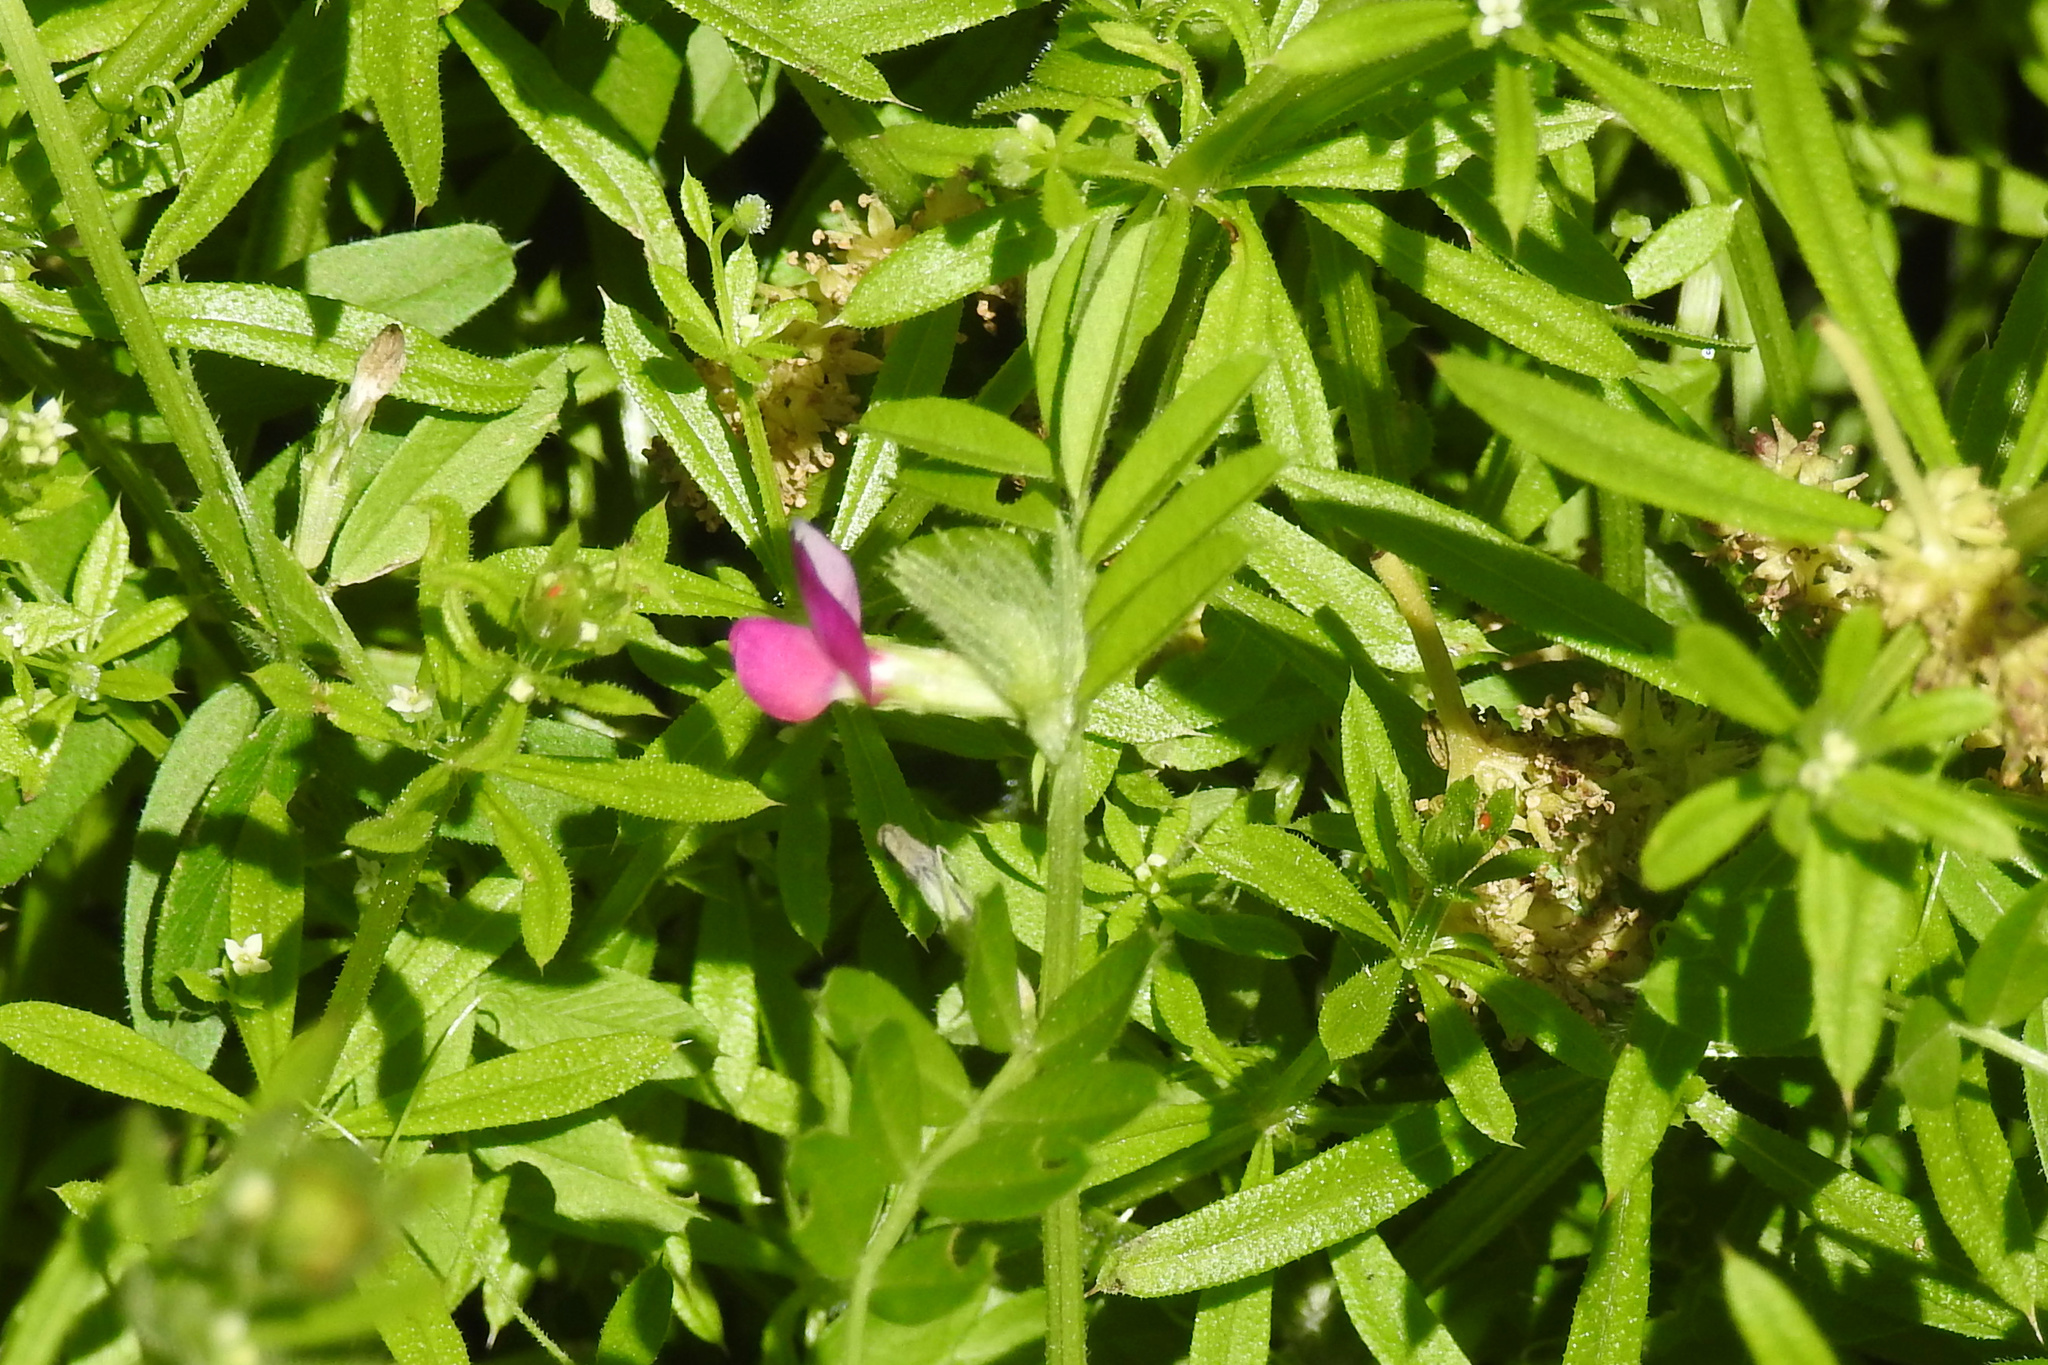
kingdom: Plantae
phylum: Tracheophyta
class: Magnoliopsida
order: Fabales
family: Fabaceae
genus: Vicia
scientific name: Vicia sativa
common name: Garden vetch
